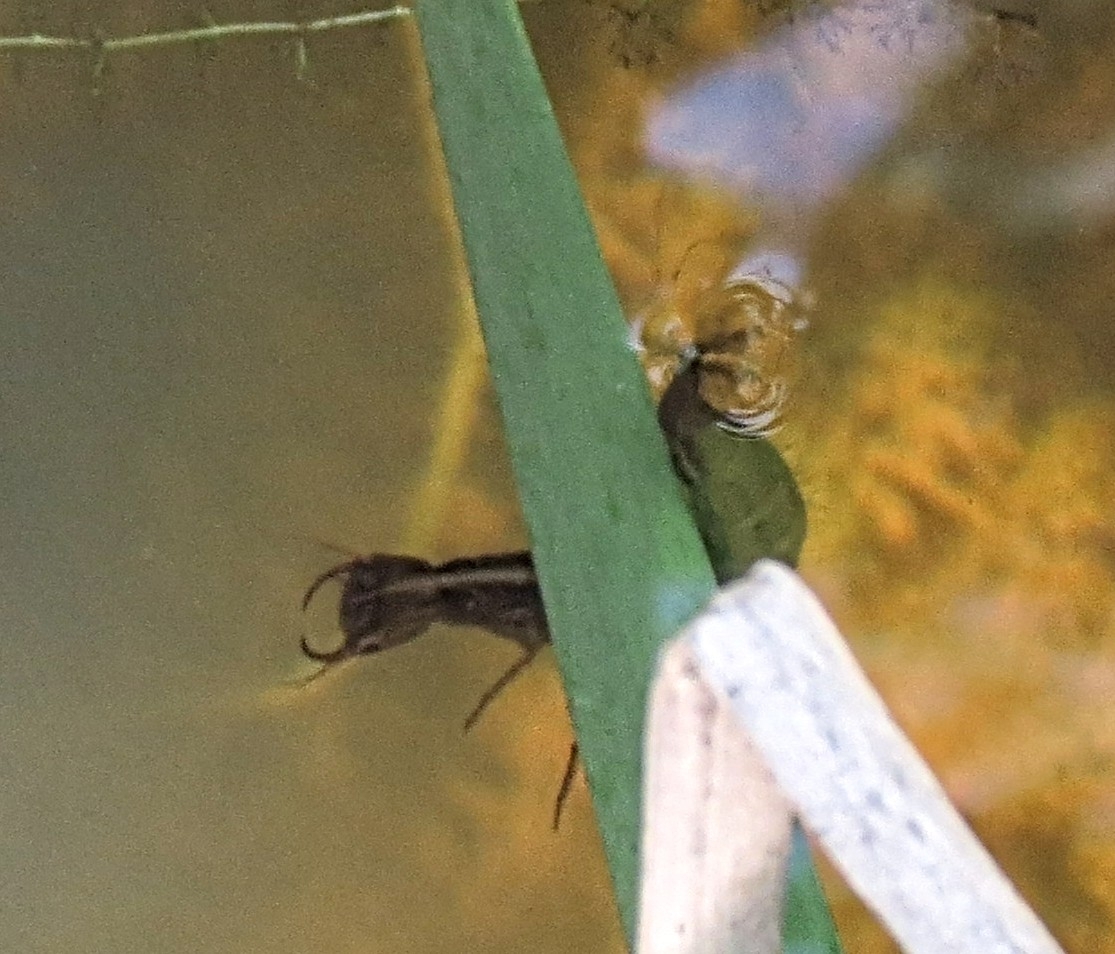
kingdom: Animalia
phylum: Arthropoda
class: Insecta
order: Coleoptera
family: Dytiscidae
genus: Dytiscus
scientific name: Dytiscus
